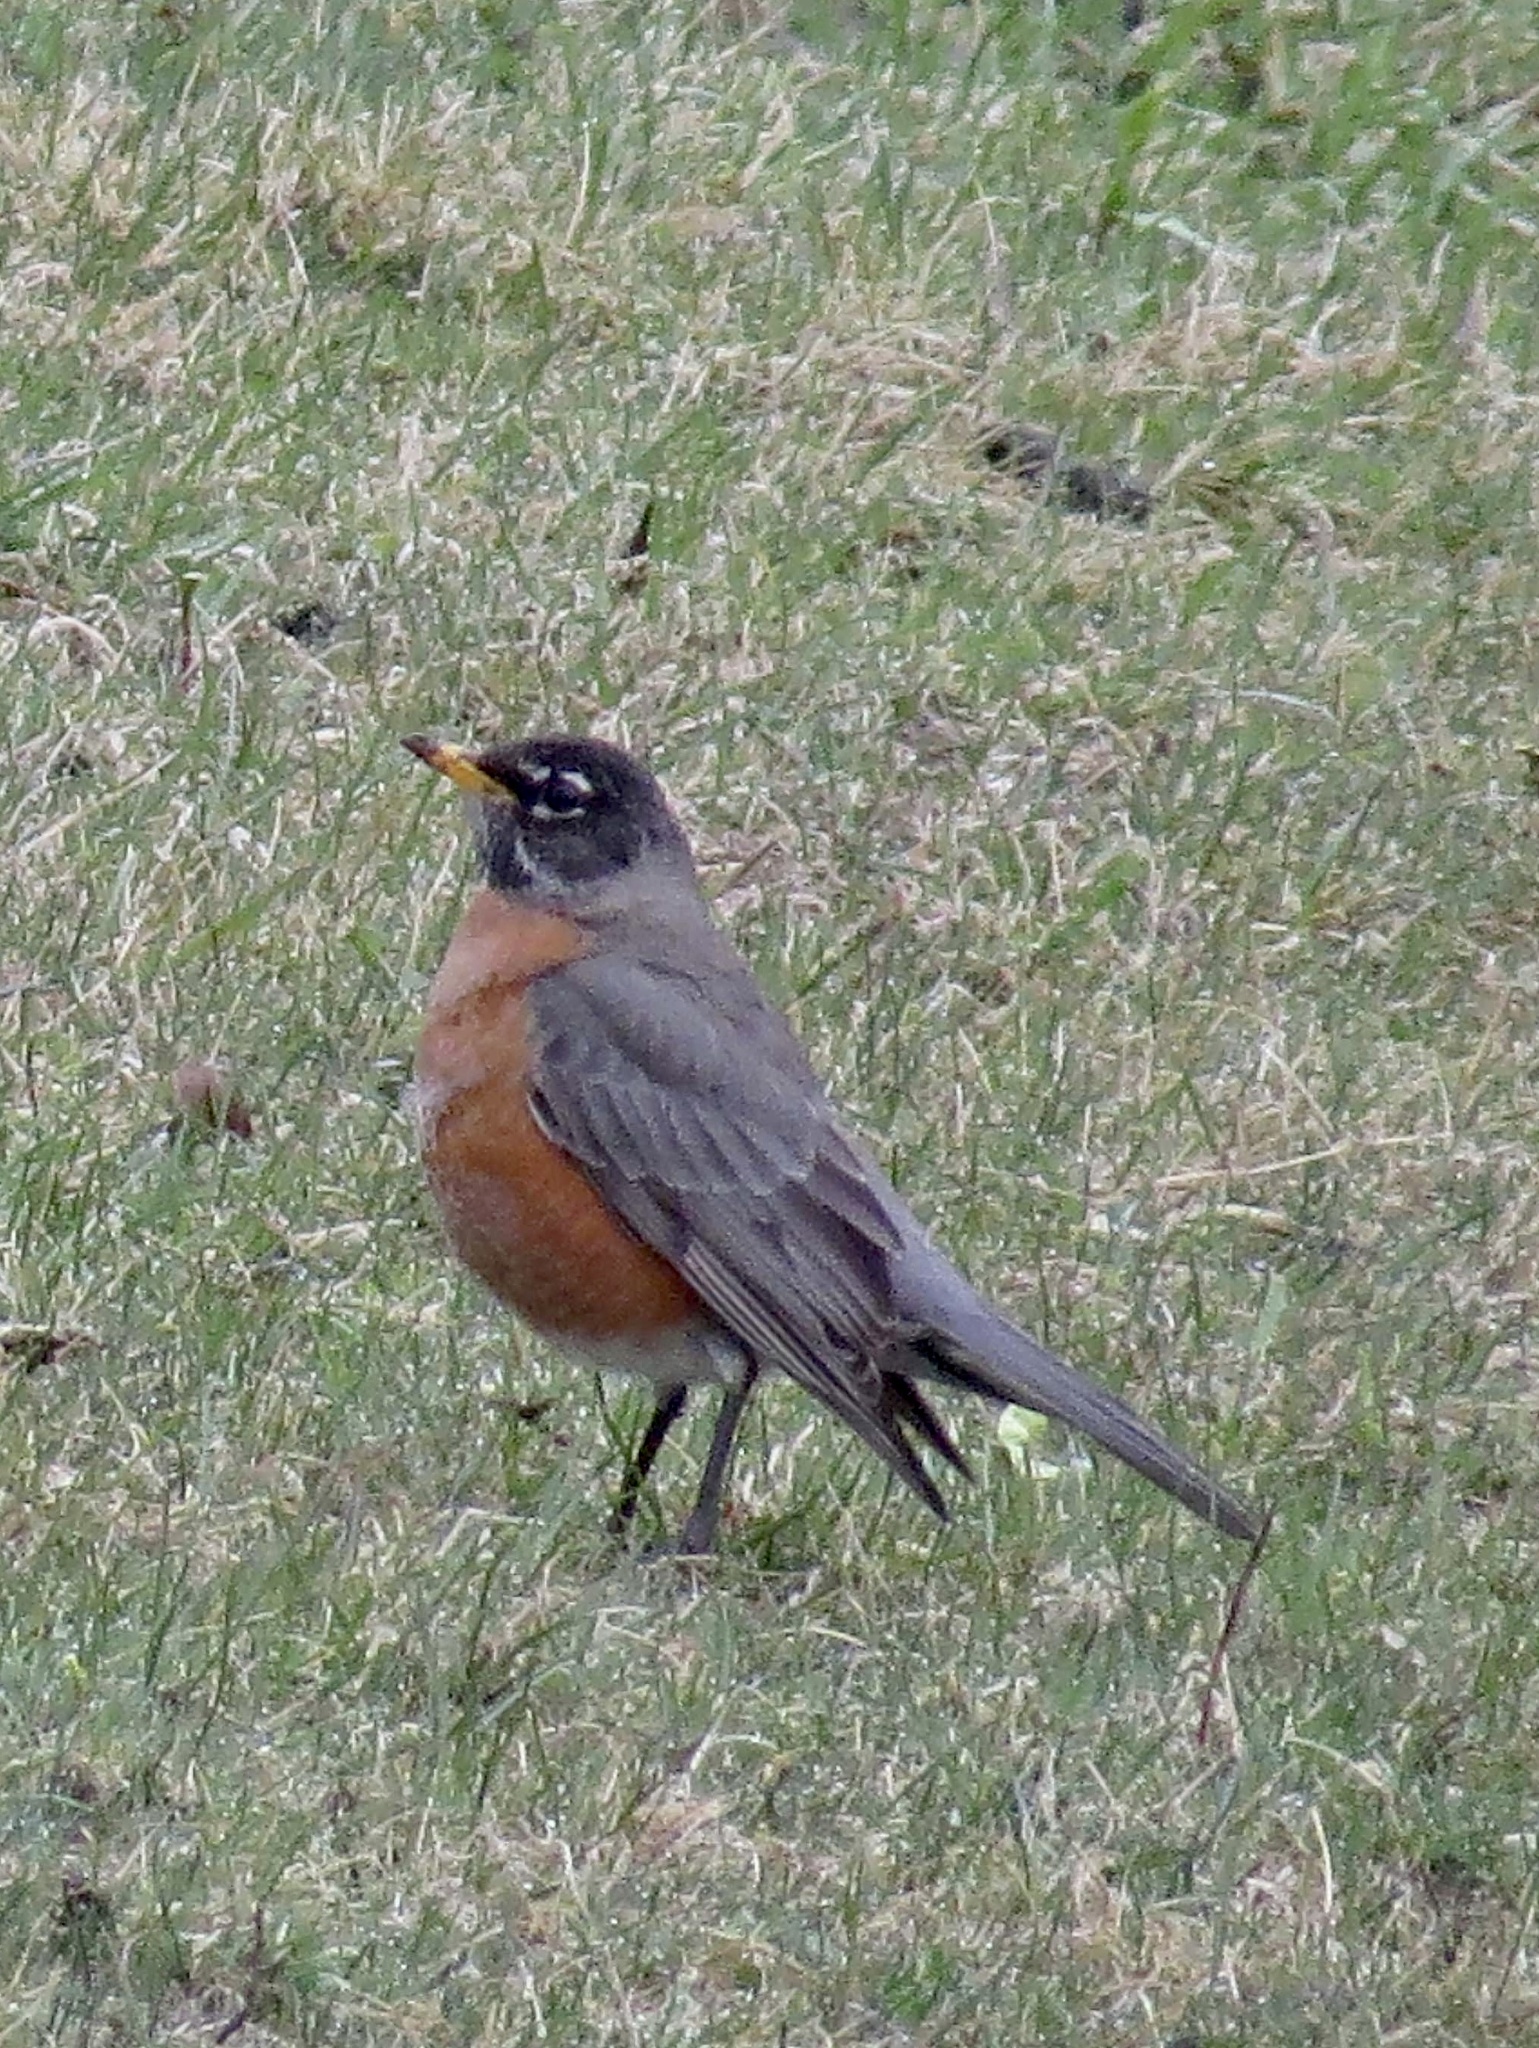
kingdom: Animalia
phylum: Chordata
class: Aves
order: Passeriformes
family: Turdidae
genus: Turdus
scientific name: Turdus migratorius
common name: American robin
